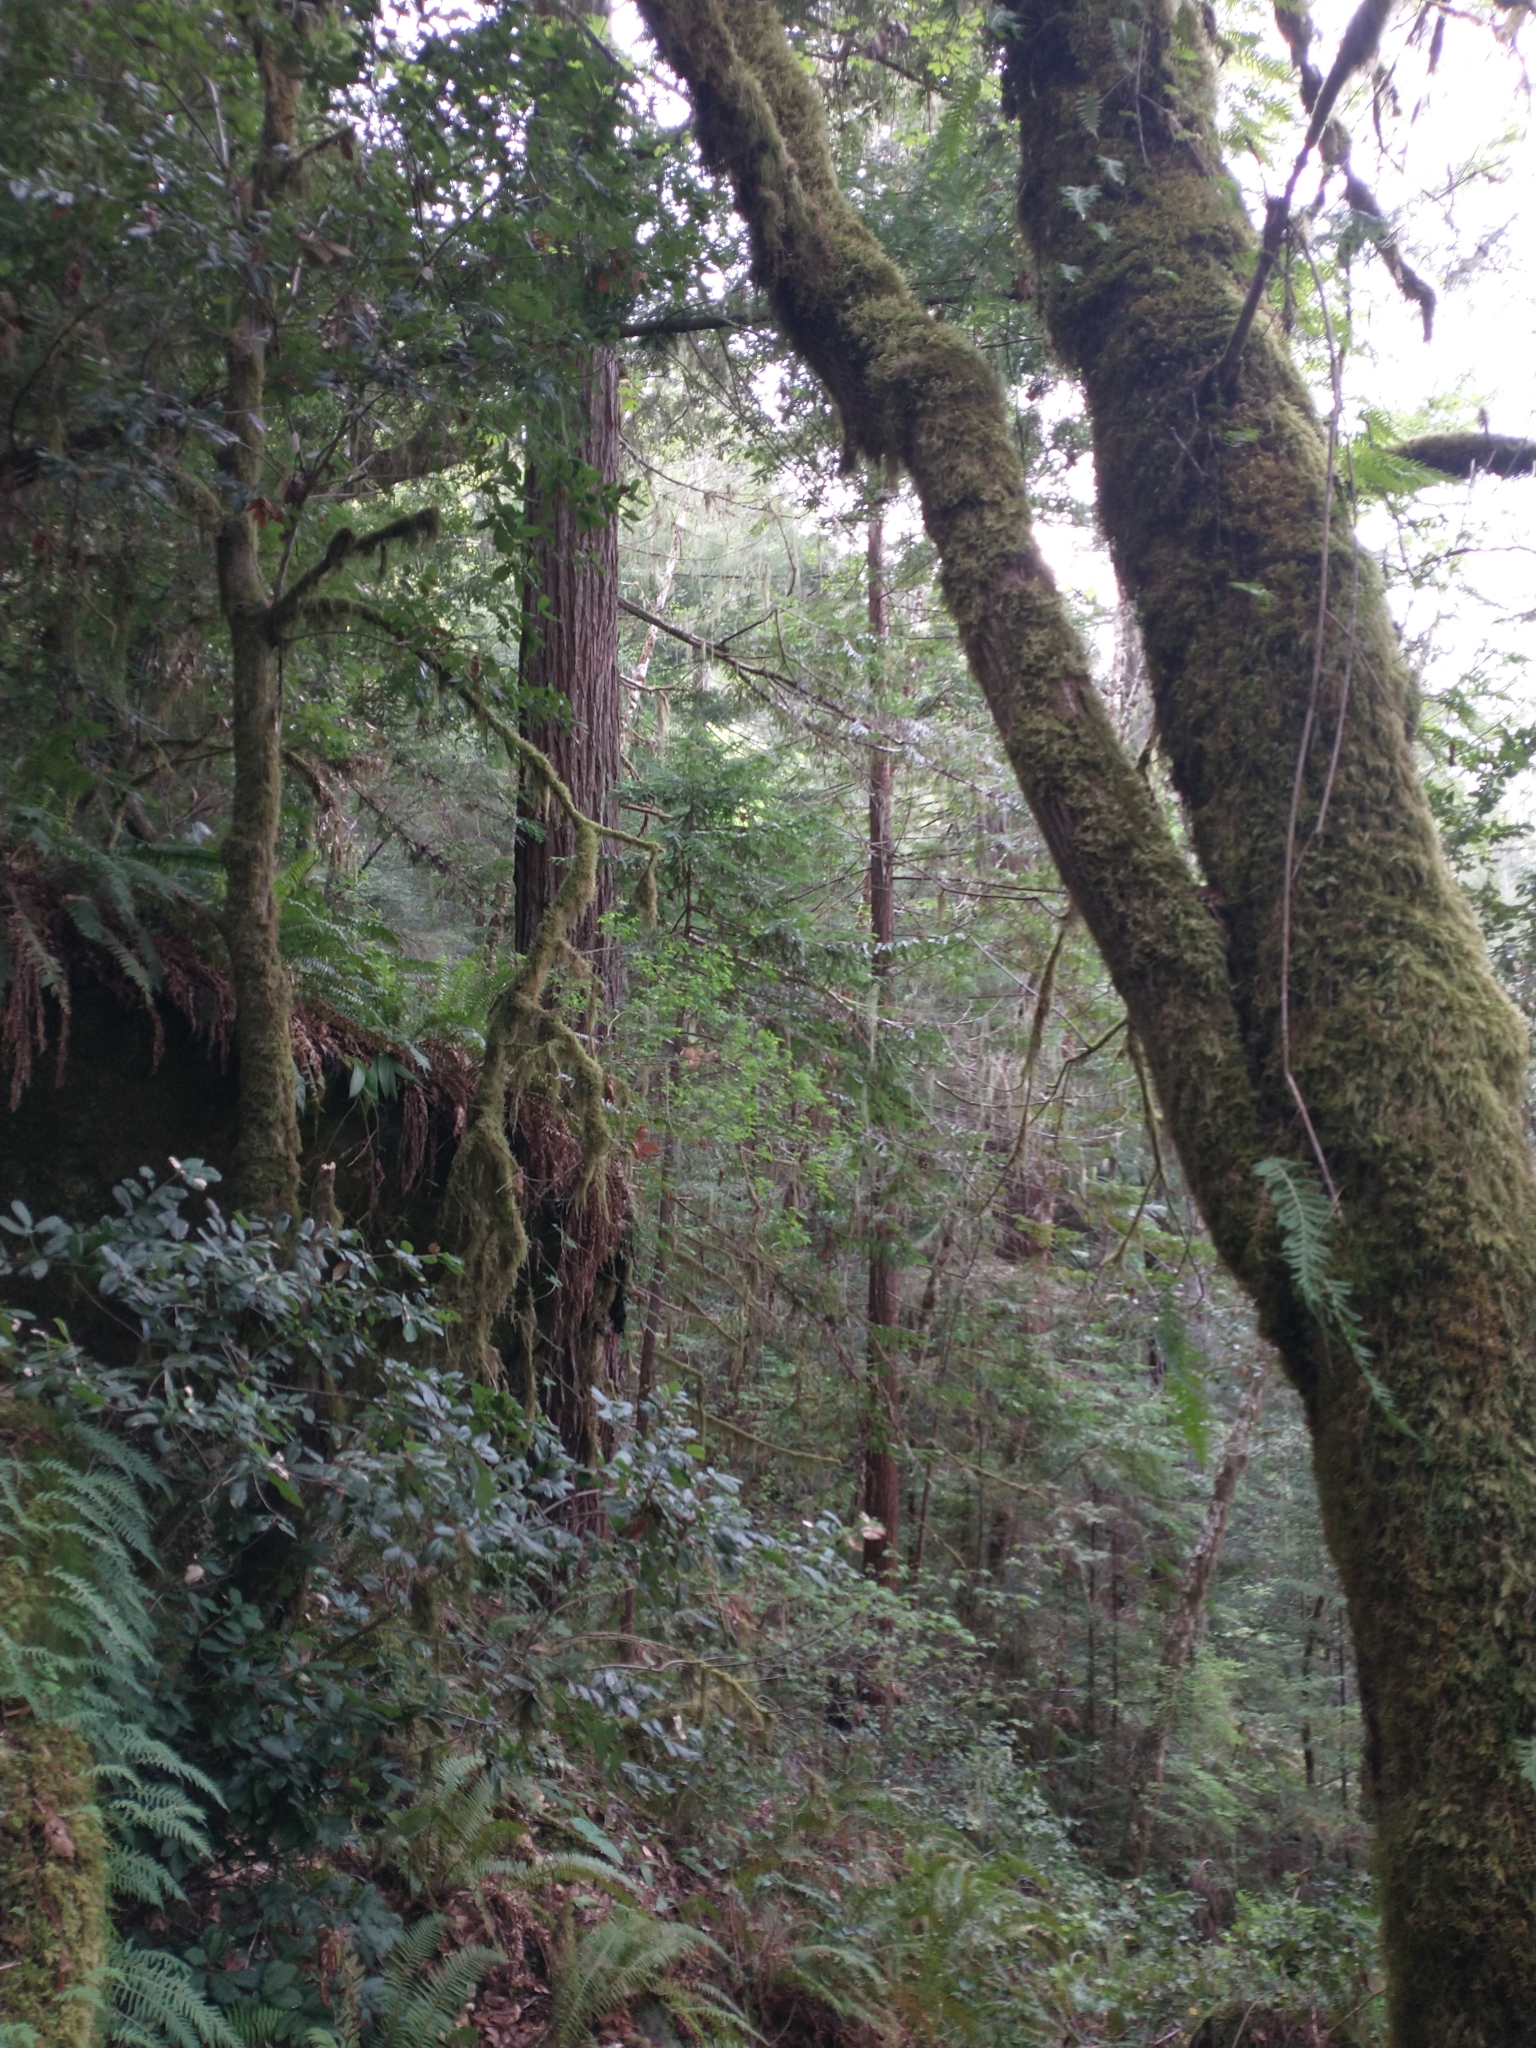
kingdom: Plantae
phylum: Tracheophyta
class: Pinopsida
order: Pinales
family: Cupressaceae
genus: Sequoia
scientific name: Sequoia sempervirens
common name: Coast redwood
